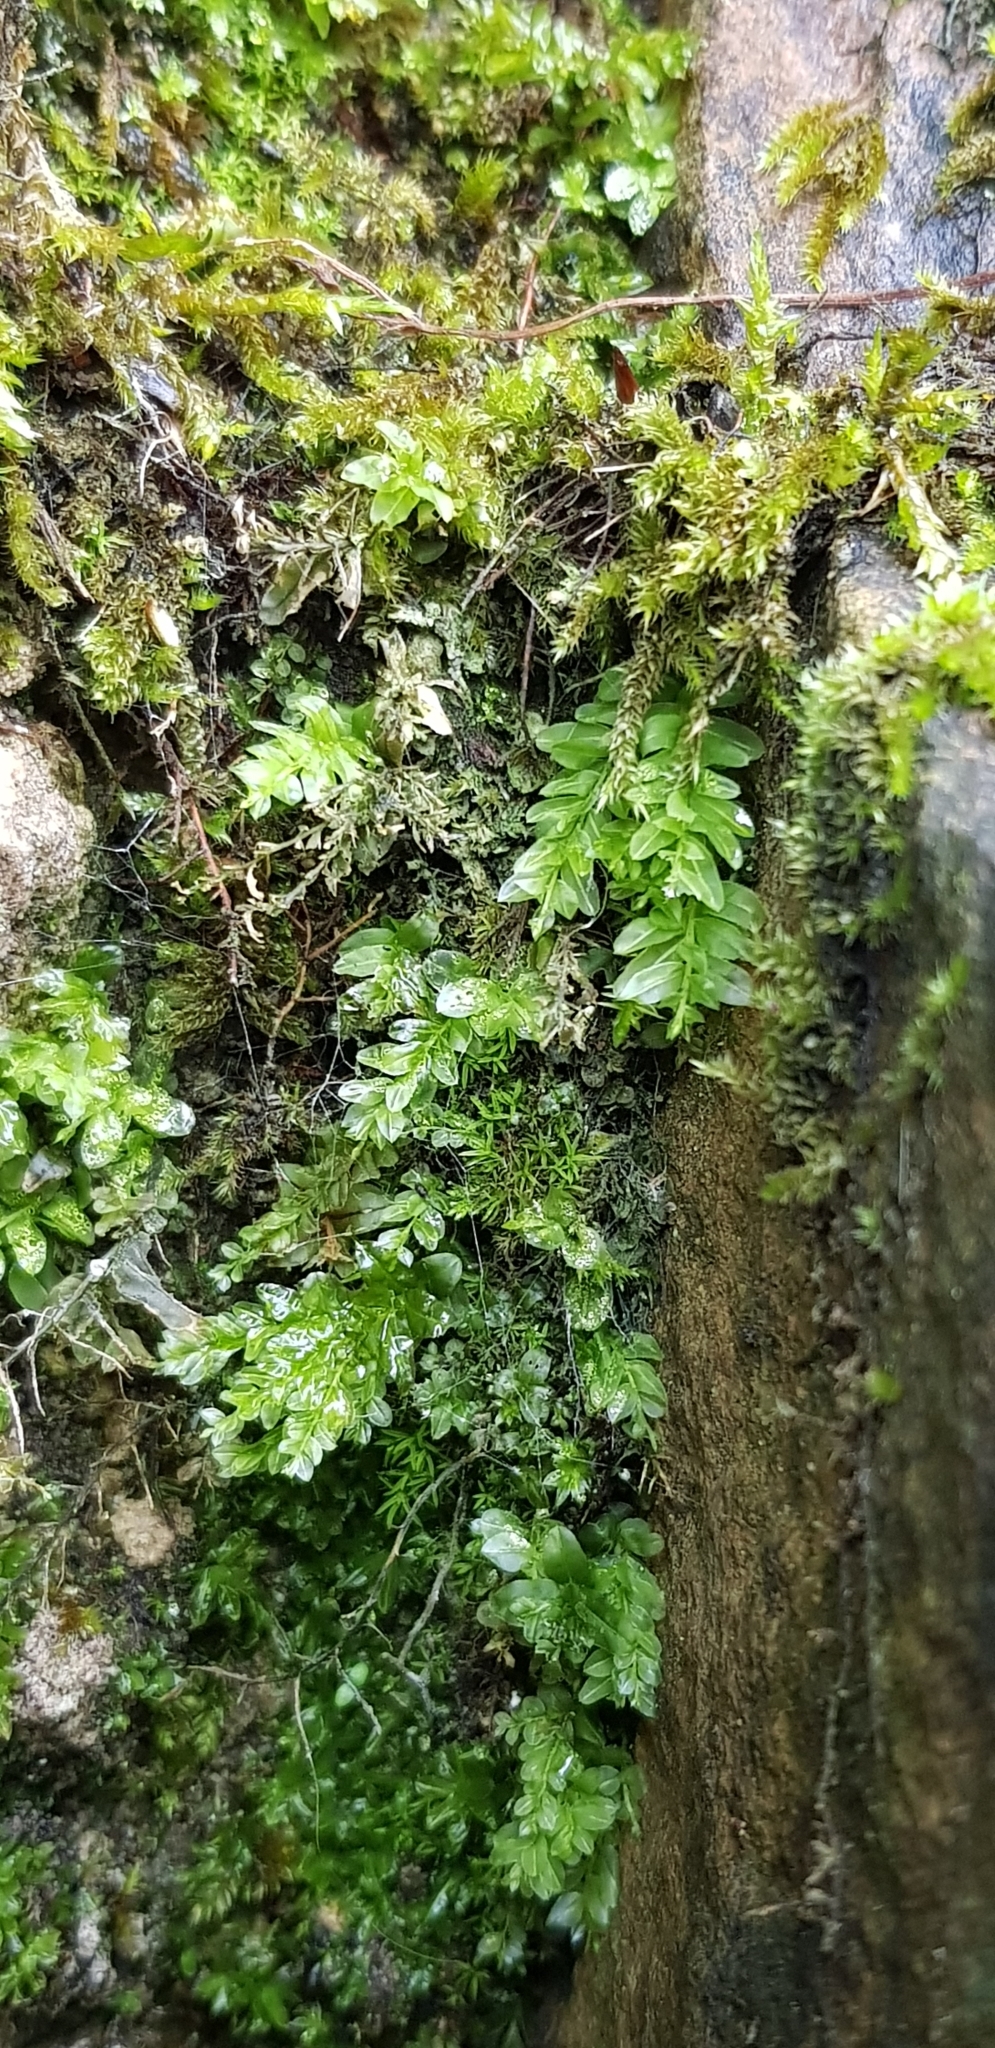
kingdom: Plantae
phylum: Bryophyta
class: Bryopsida
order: Bryales
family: Mniaceae
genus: Plagiomnium
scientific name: Plagiomnium undulatum
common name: Hart's-tongue thyme-moss
